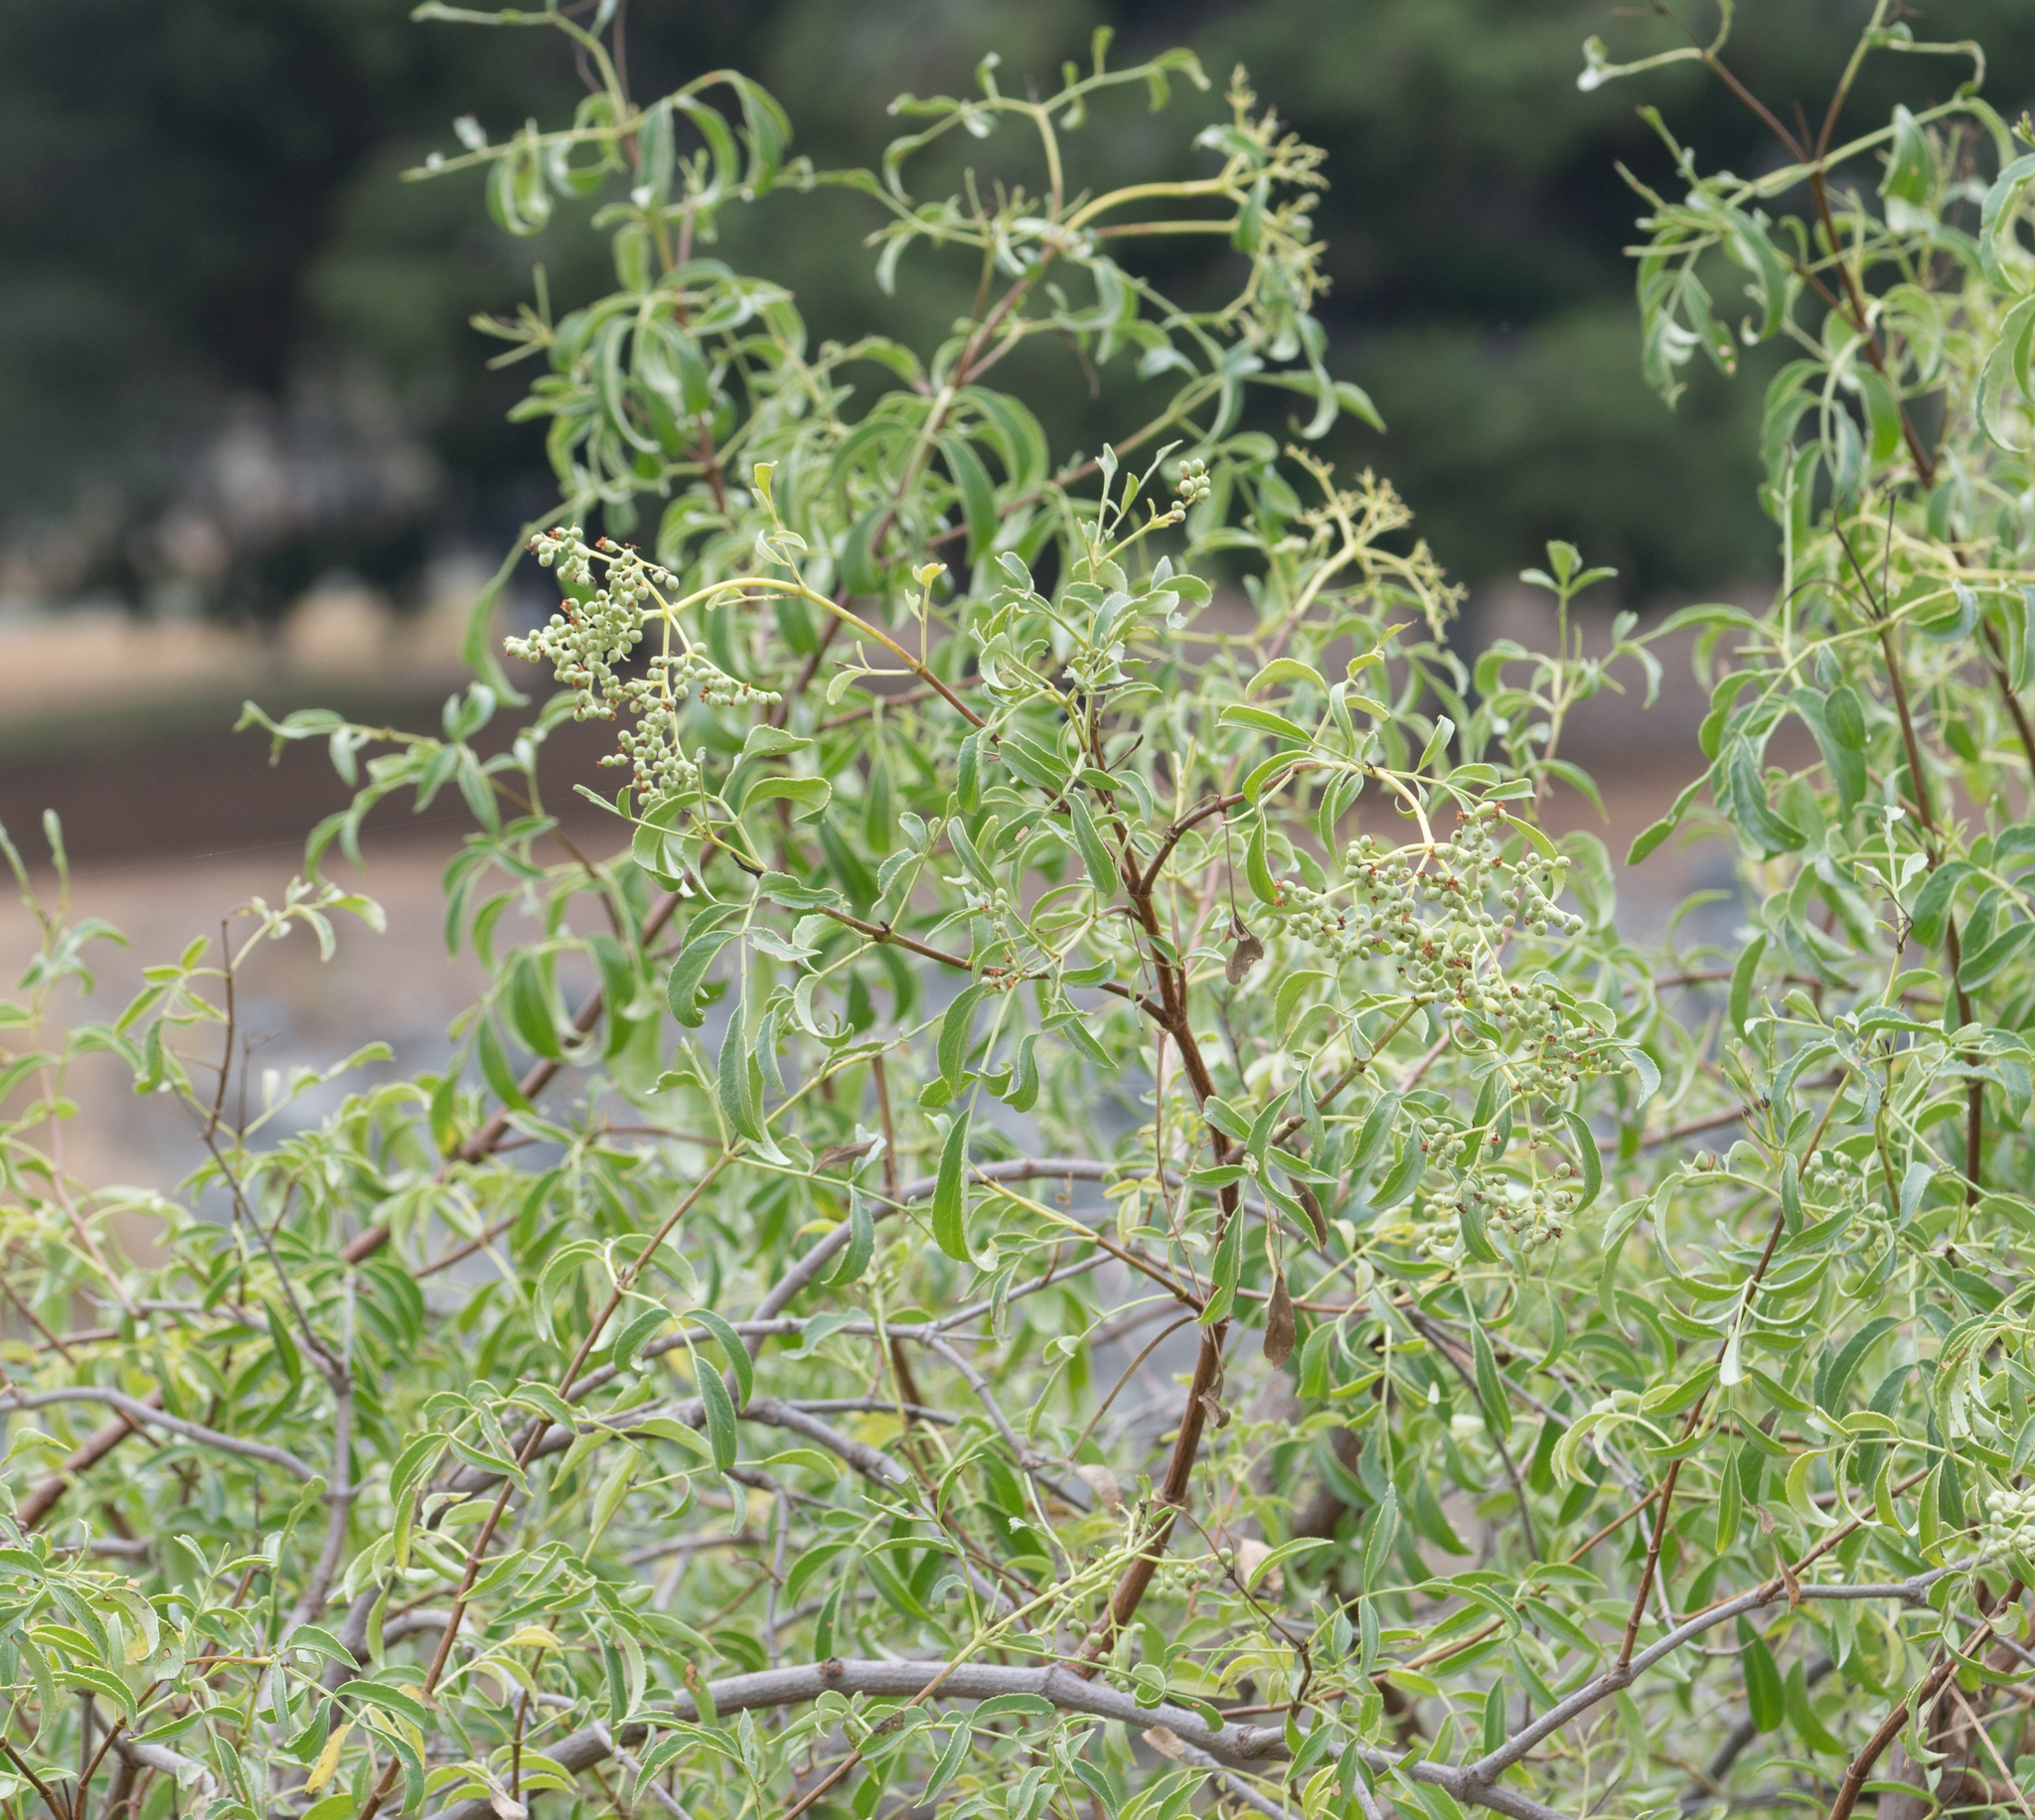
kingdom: Plantae
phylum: Tracheophyta
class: Magnoliopsida
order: Dipsacales
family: Viburnaceae
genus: Sambucus
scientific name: Sambucus cerulea
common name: Blue elder
